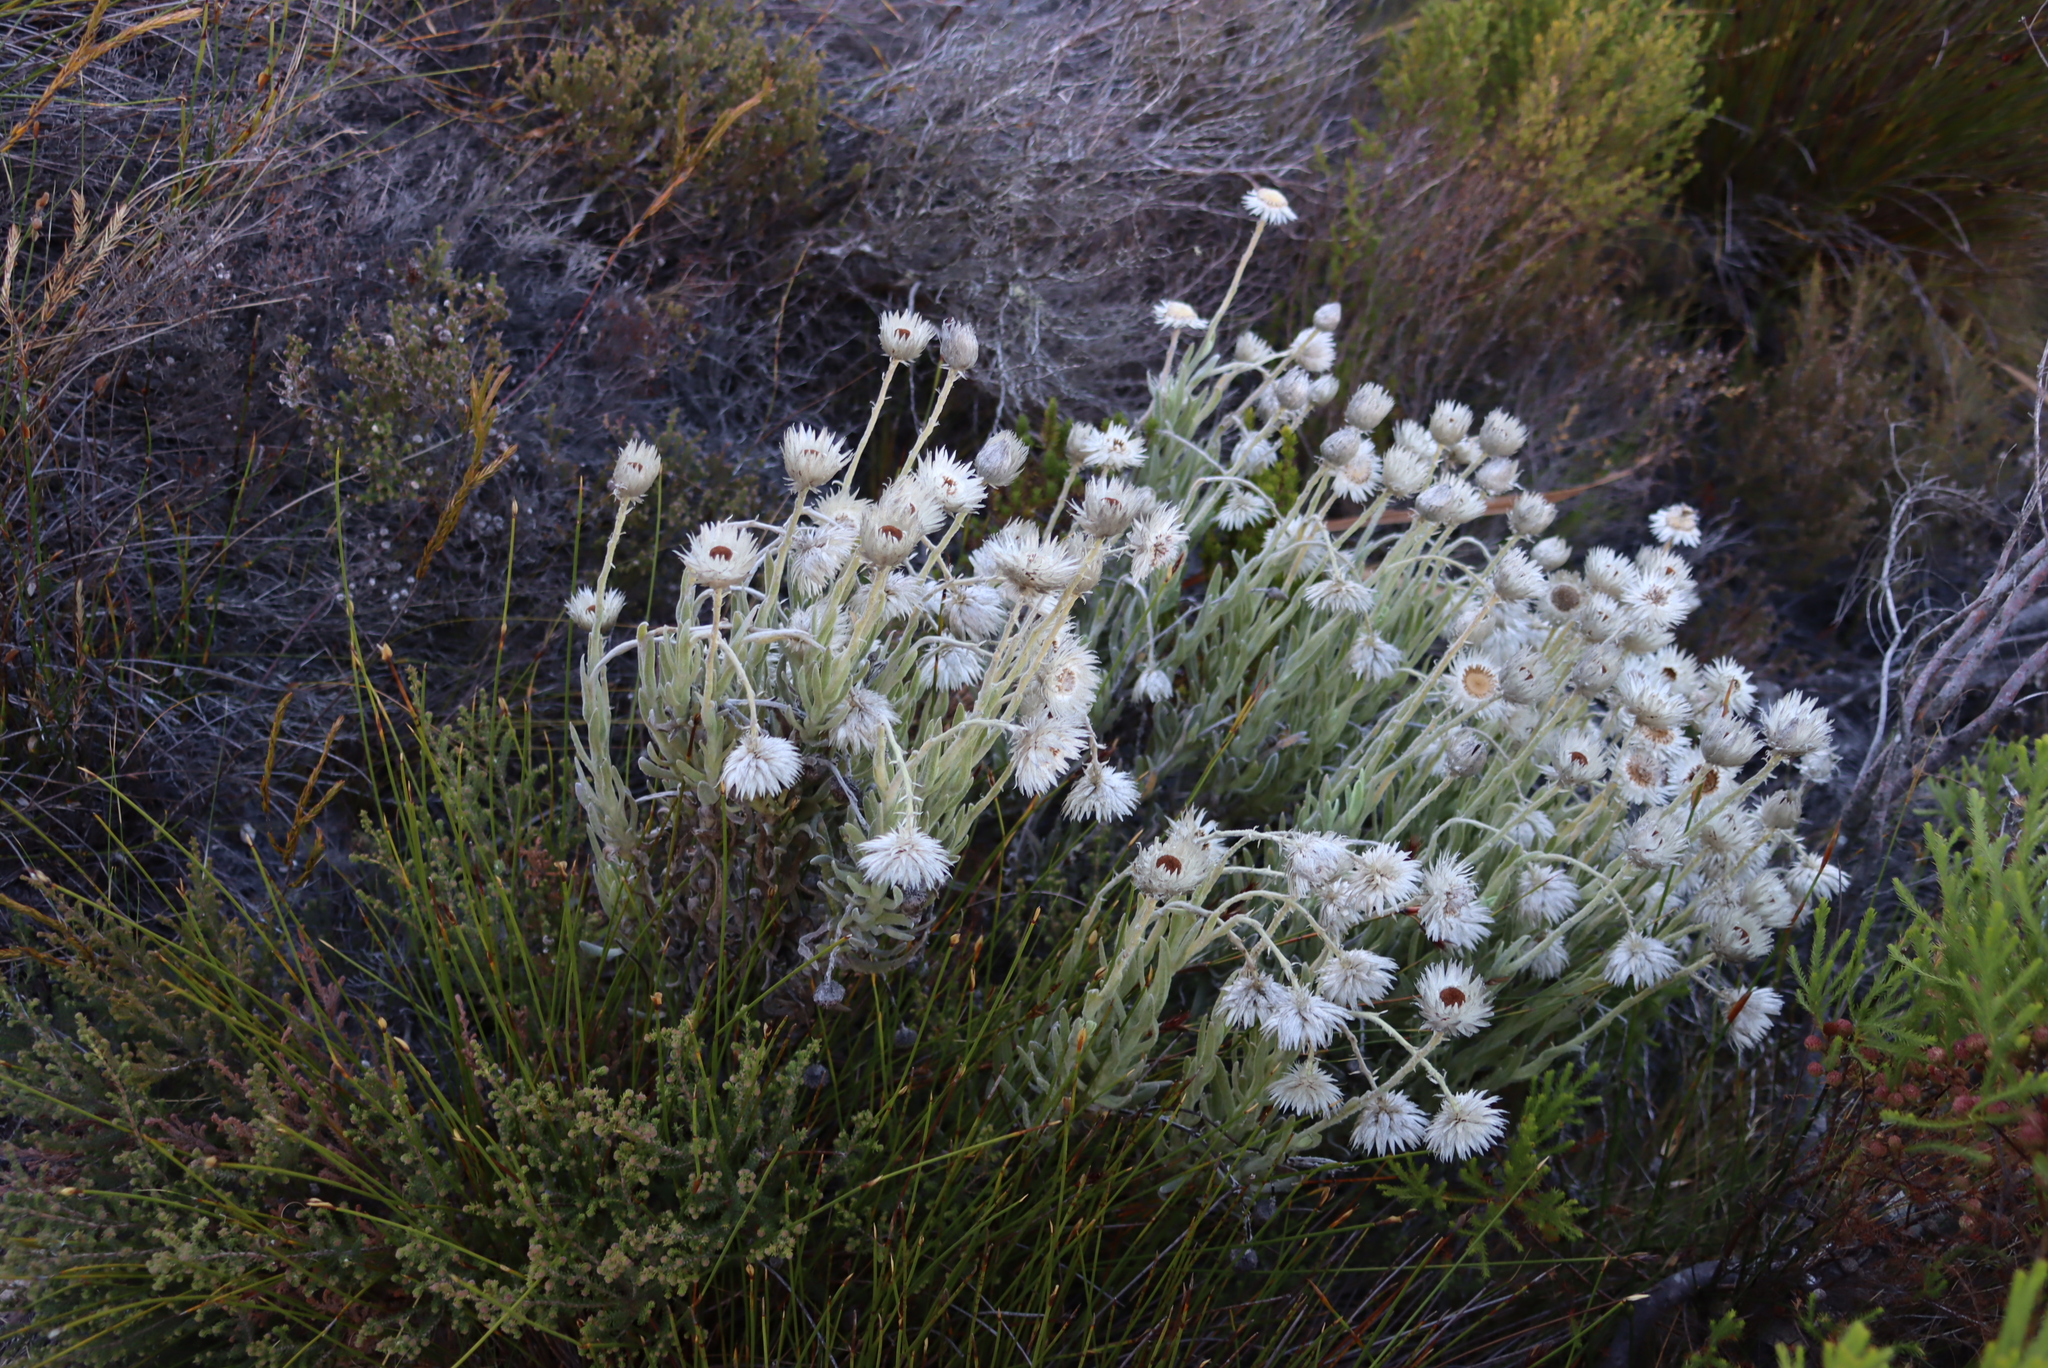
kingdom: Plantae
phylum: Tracheophyta
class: Magnoliopsida
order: Asterales
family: Asteraceae
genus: Syncarpha
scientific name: Syncarpha vestita
